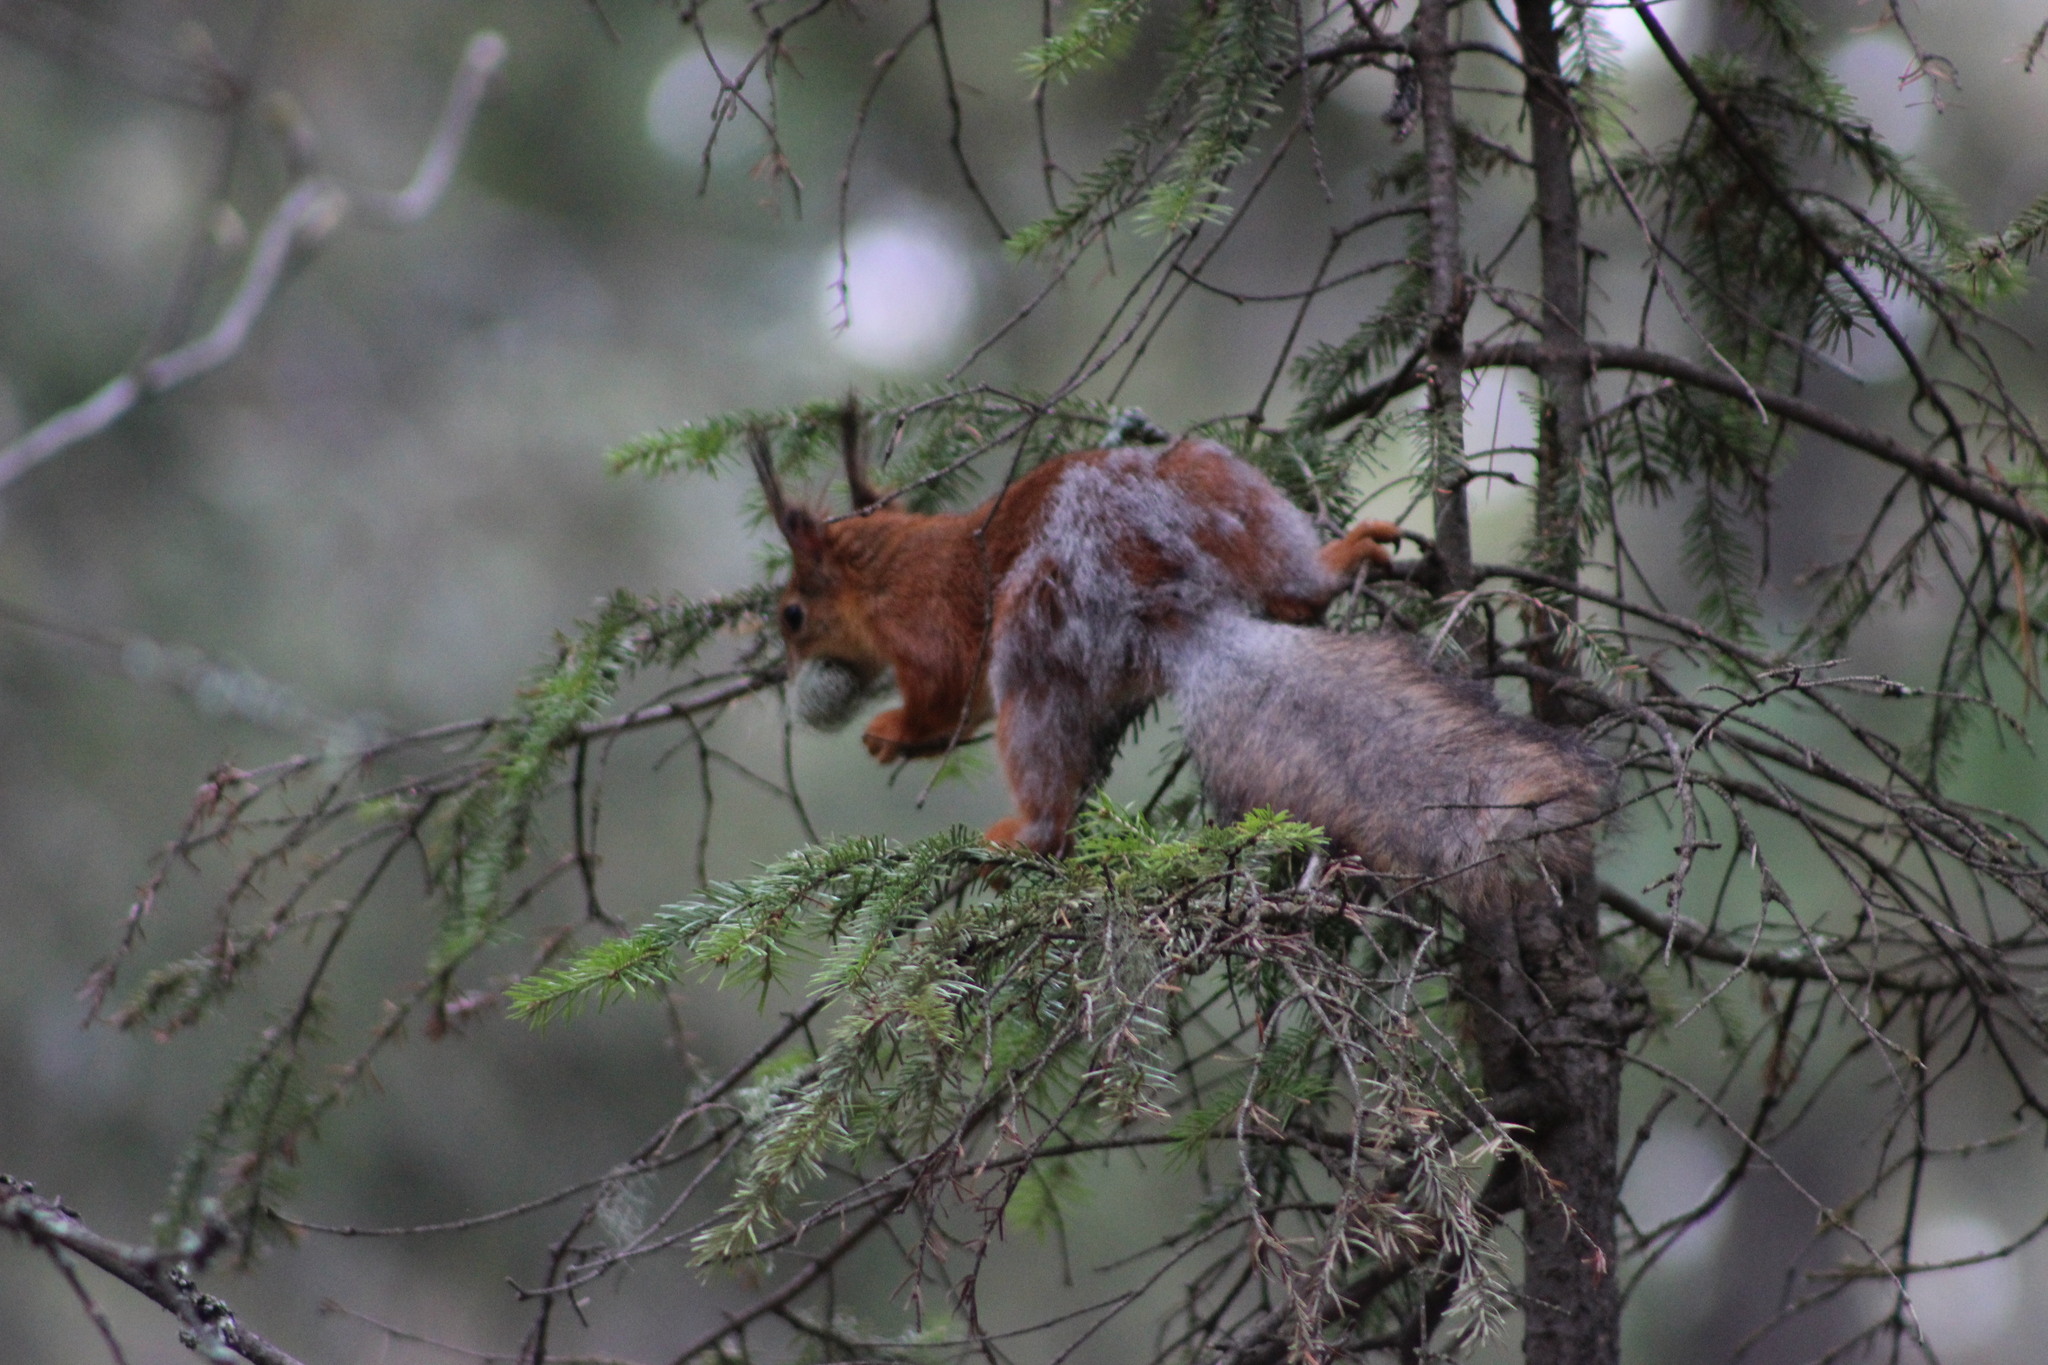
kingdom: Animalia
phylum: Chordata
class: Mammalia
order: Rodentia
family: Sciuridae
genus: Sciurus
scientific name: Sciurus vulgaris
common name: Eurasian red squirrel
